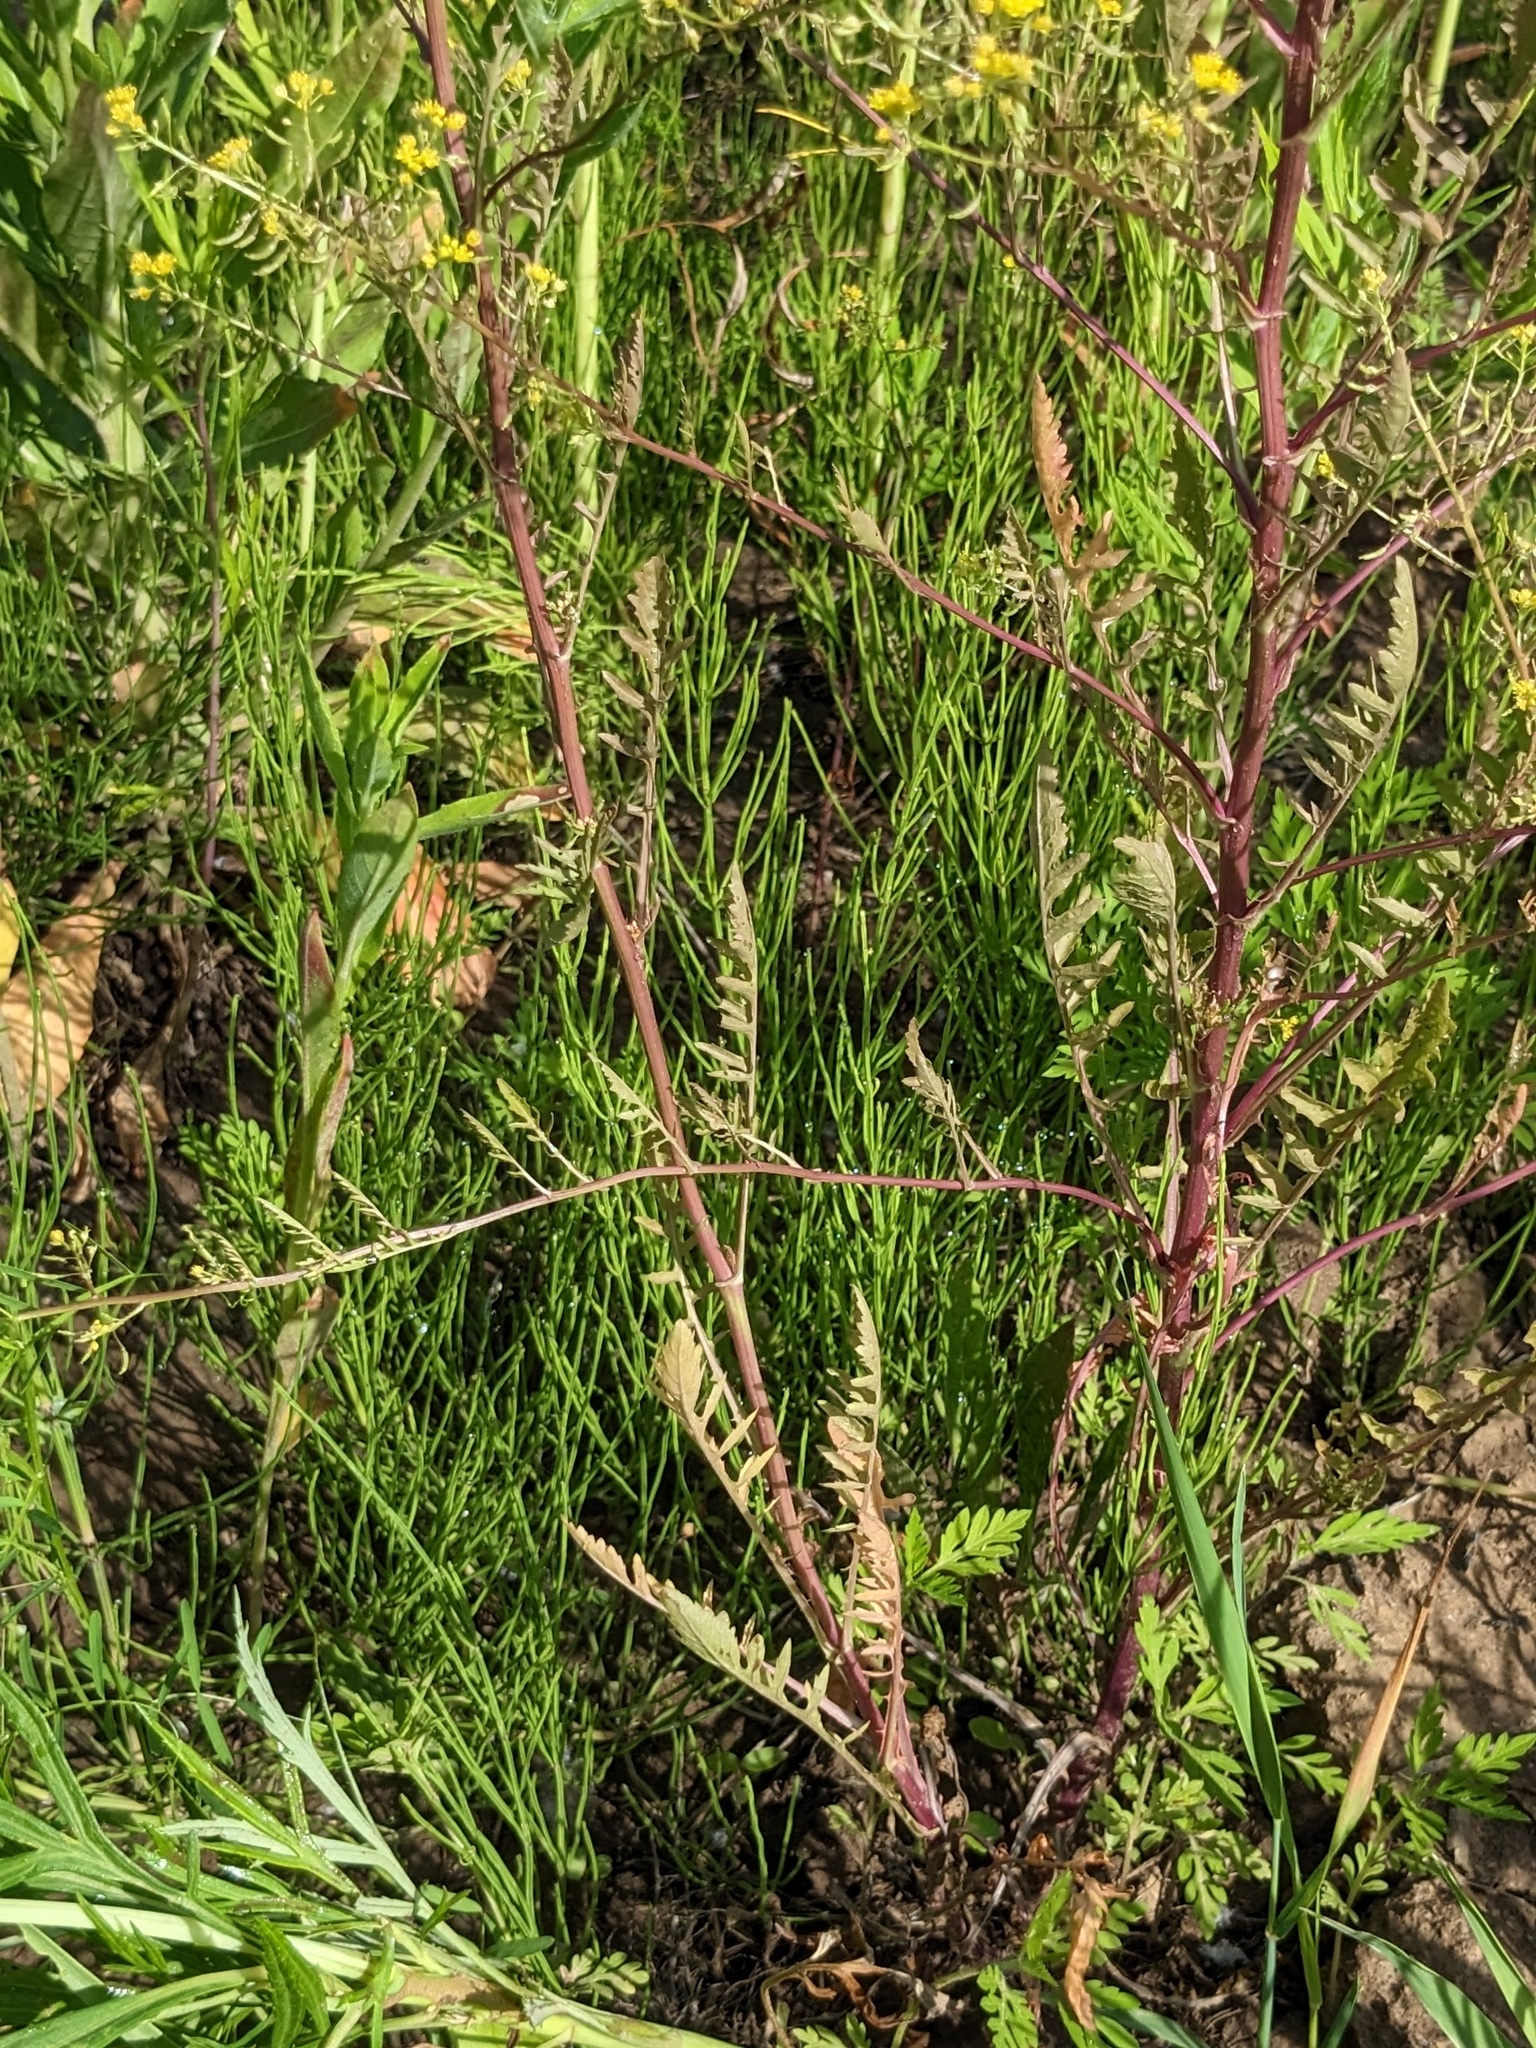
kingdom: Plantae
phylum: Tracheophyta
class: Magnoliopsida
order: Brassicales
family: Brassicaceae
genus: Rorippa
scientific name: Rorippa palustris
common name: Marsh yellow-cress
